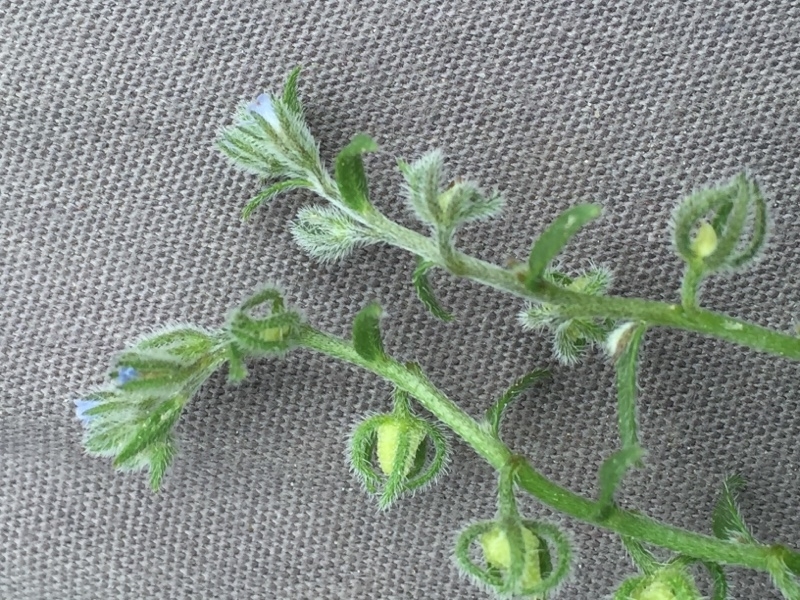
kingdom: Plantae
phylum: Tracheophyta
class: Magnoliopsida
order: Boraginales
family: Boraginaceae
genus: Lappula
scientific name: Lappula squarrosa
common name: European stickseed
